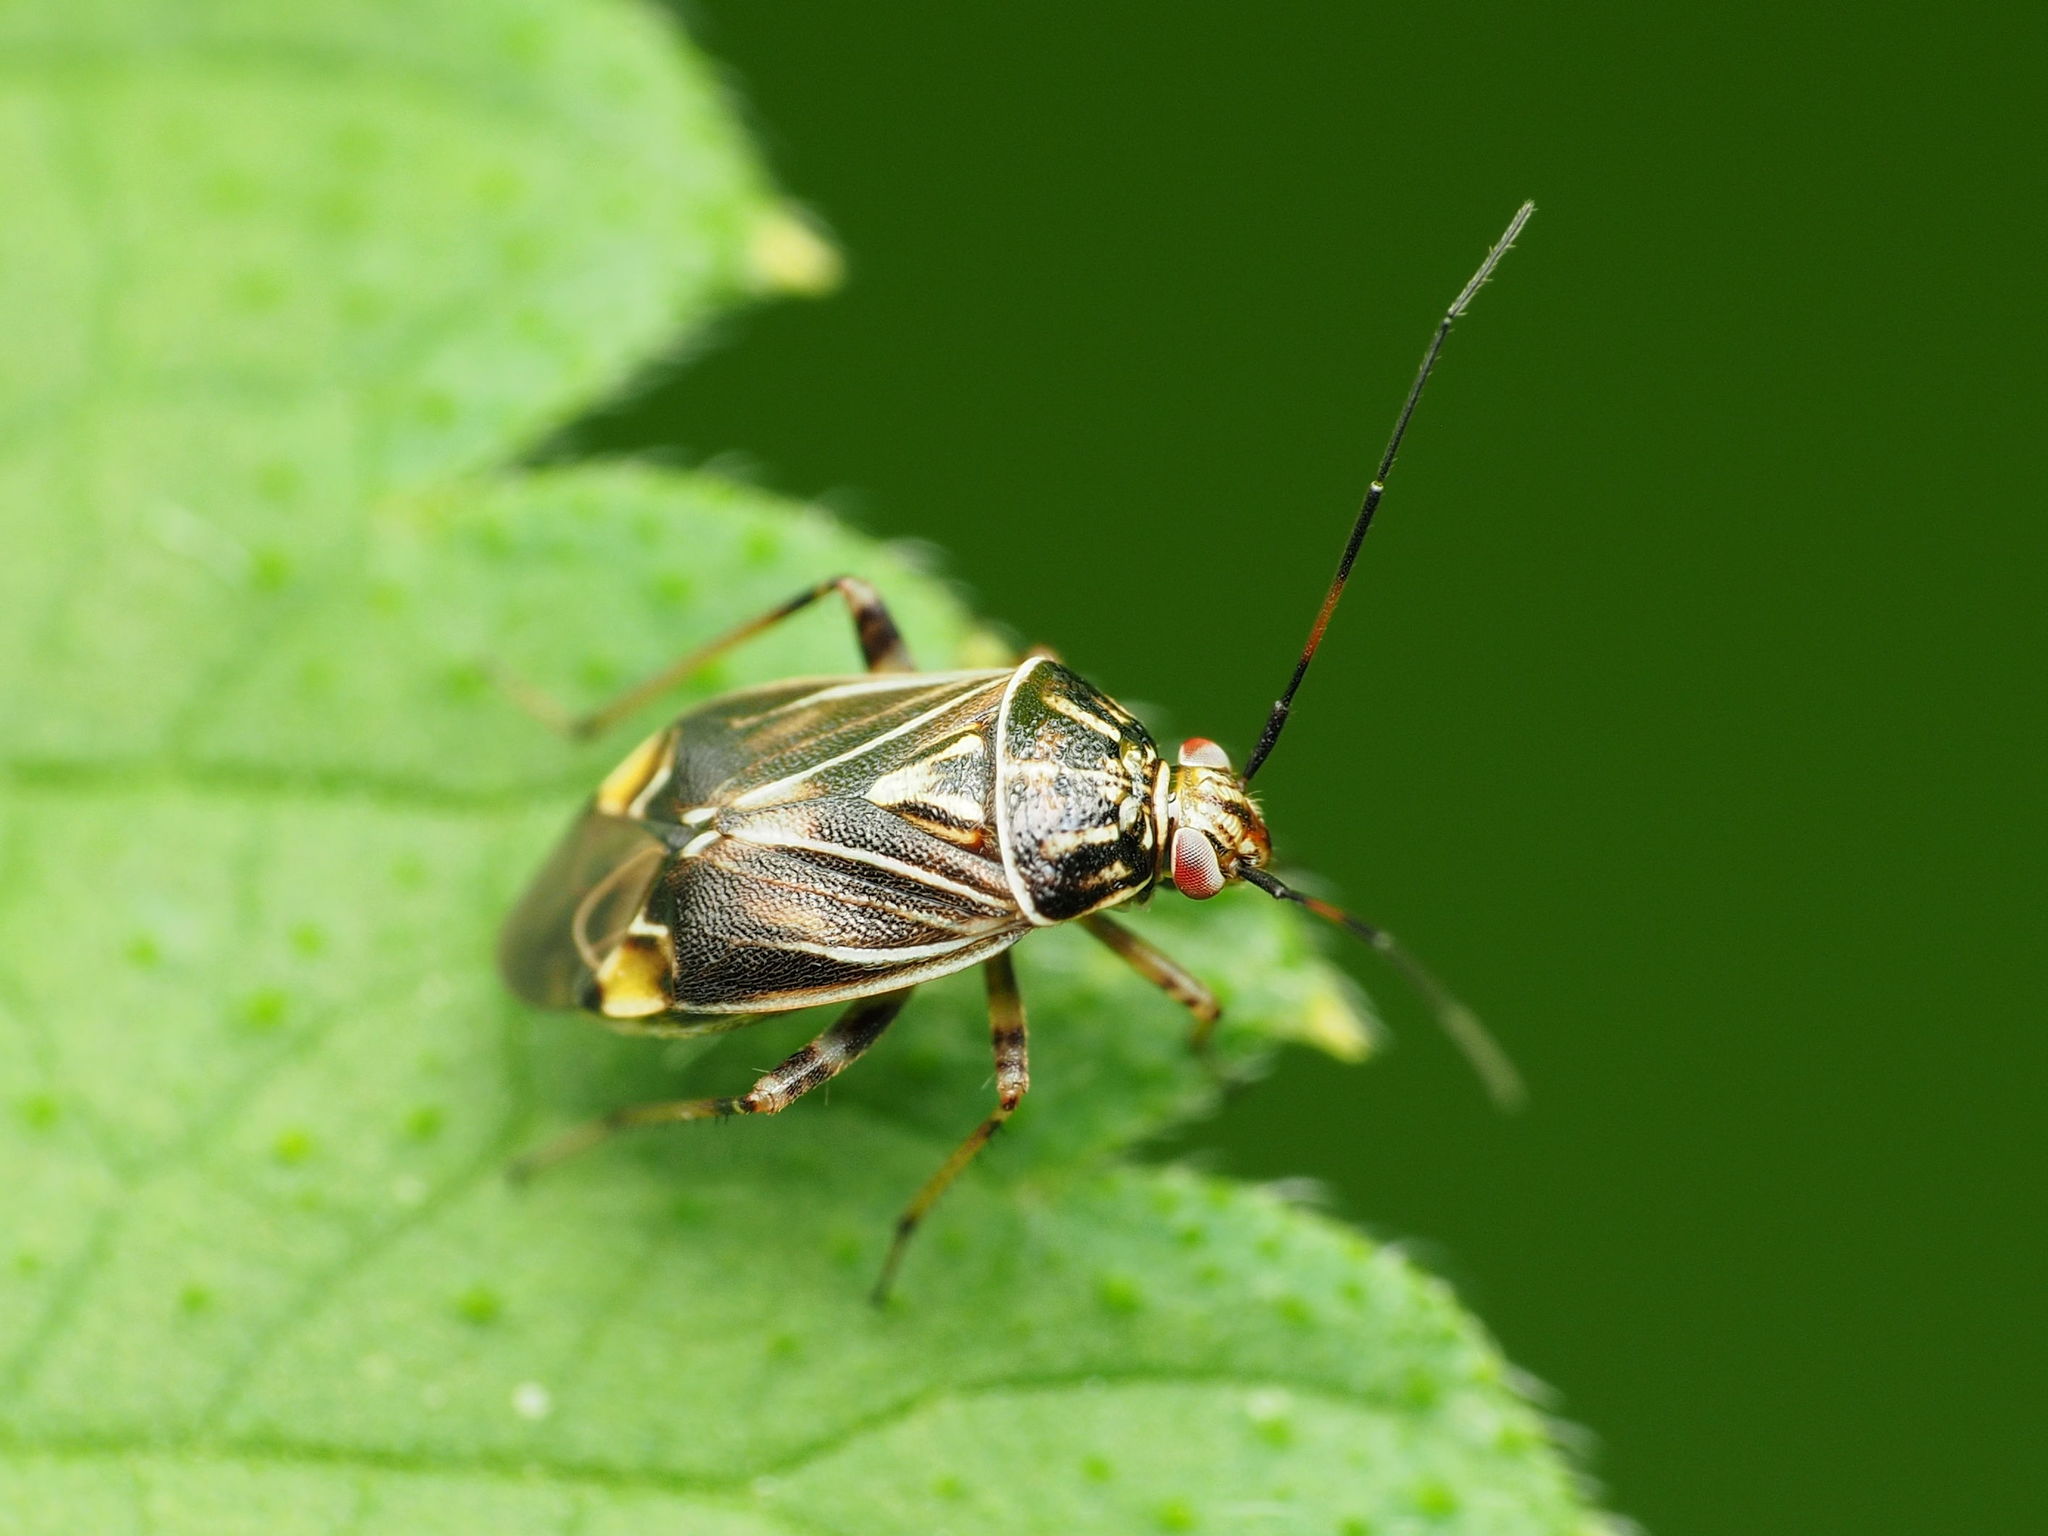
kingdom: Animalia
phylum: Arthropoda
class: Insecta
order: Hemiptera
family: Miridae
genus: Lygus
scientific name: Lygus lineolaris
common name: North american tarnished plant bug
